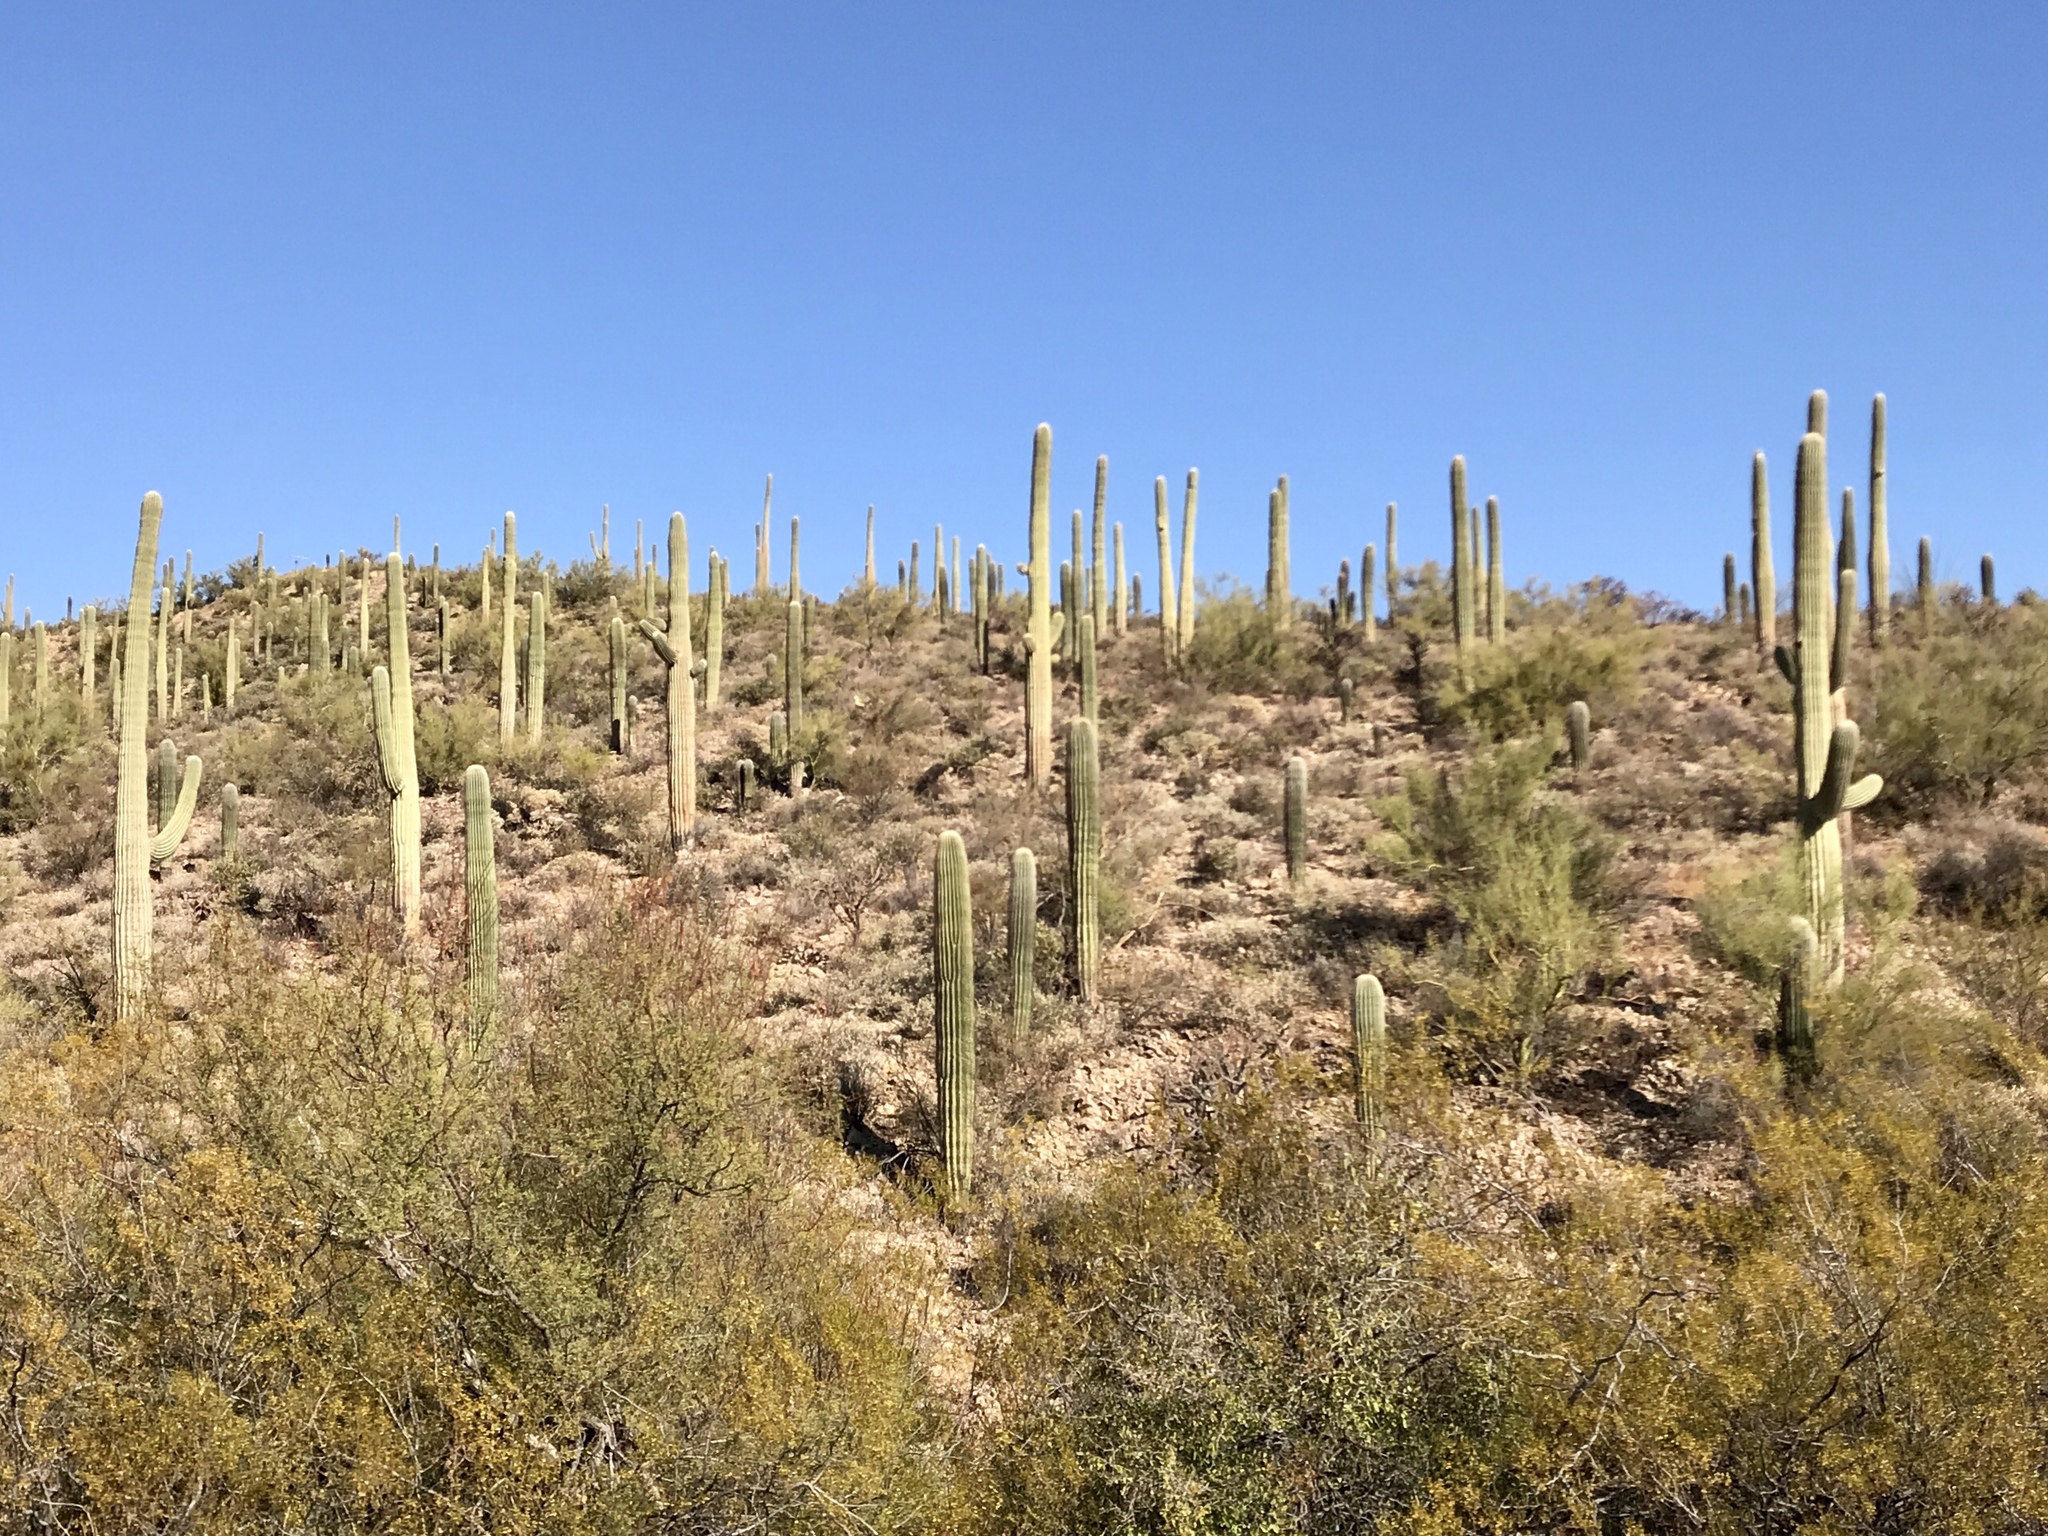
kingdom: Plantae
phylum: Tracheophyta
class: Magnoliopsida
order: Caryophyllales
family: Cactaceae
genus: Carnegiea
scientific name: Carnegiea gigantea
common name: Saguaro
